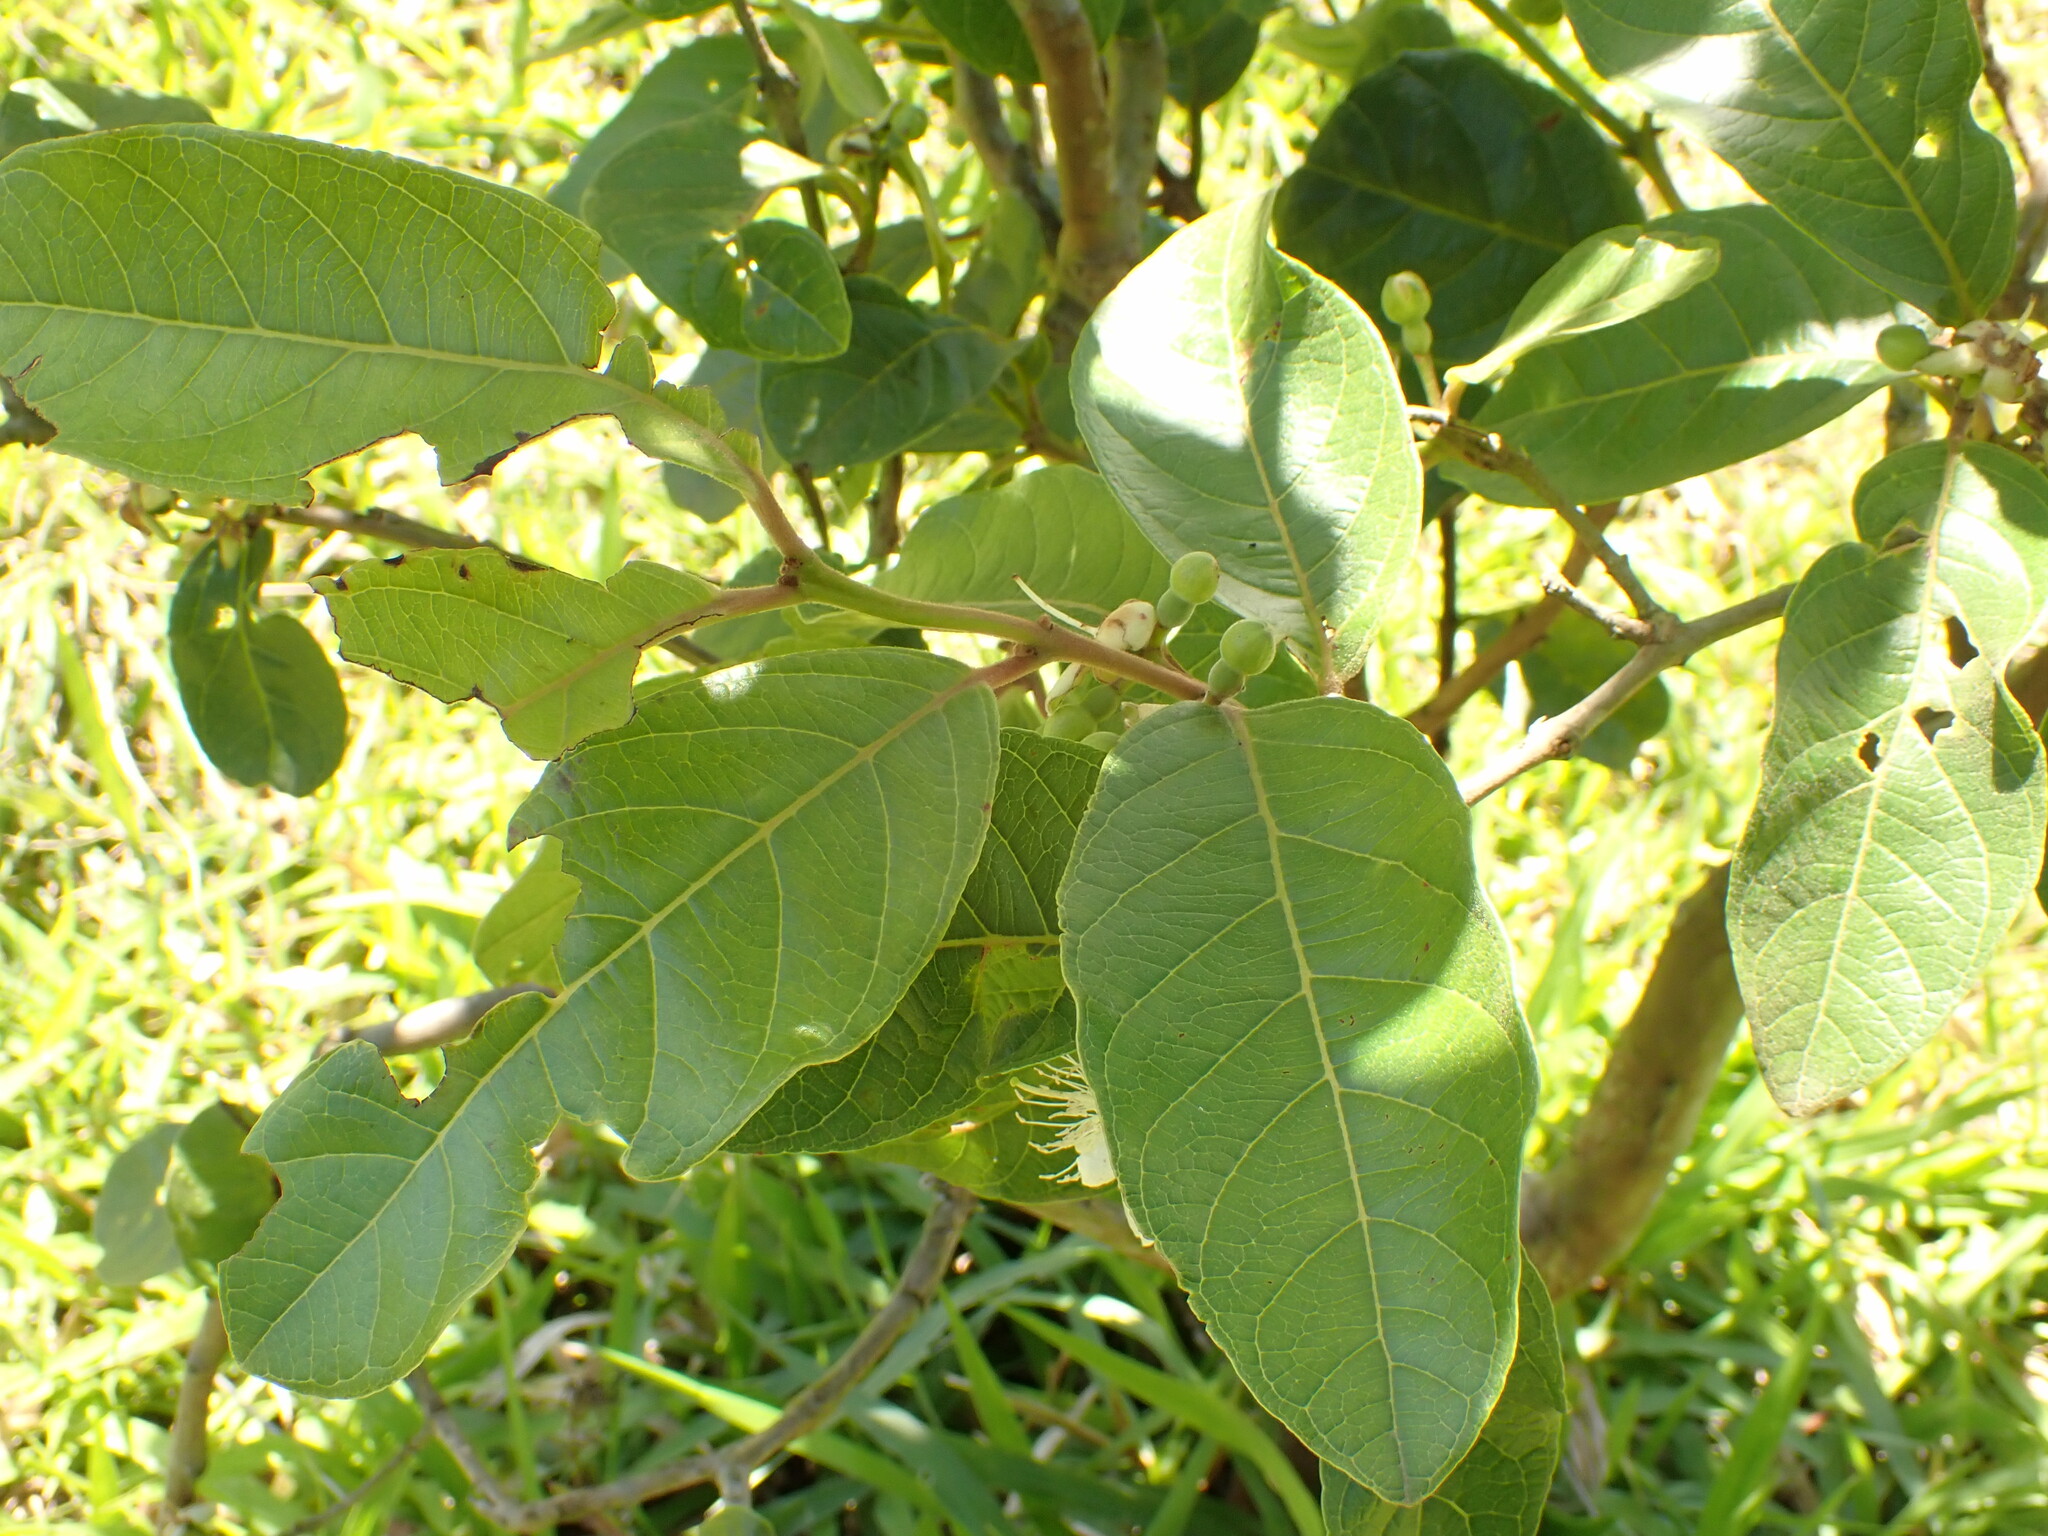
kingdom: Plantae
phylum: Tracheophyta
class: Magnoliopsida
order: Myrtales
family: Myrtaceae
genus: Psidium
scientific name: Psidium guineense
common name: Brazilian guava
